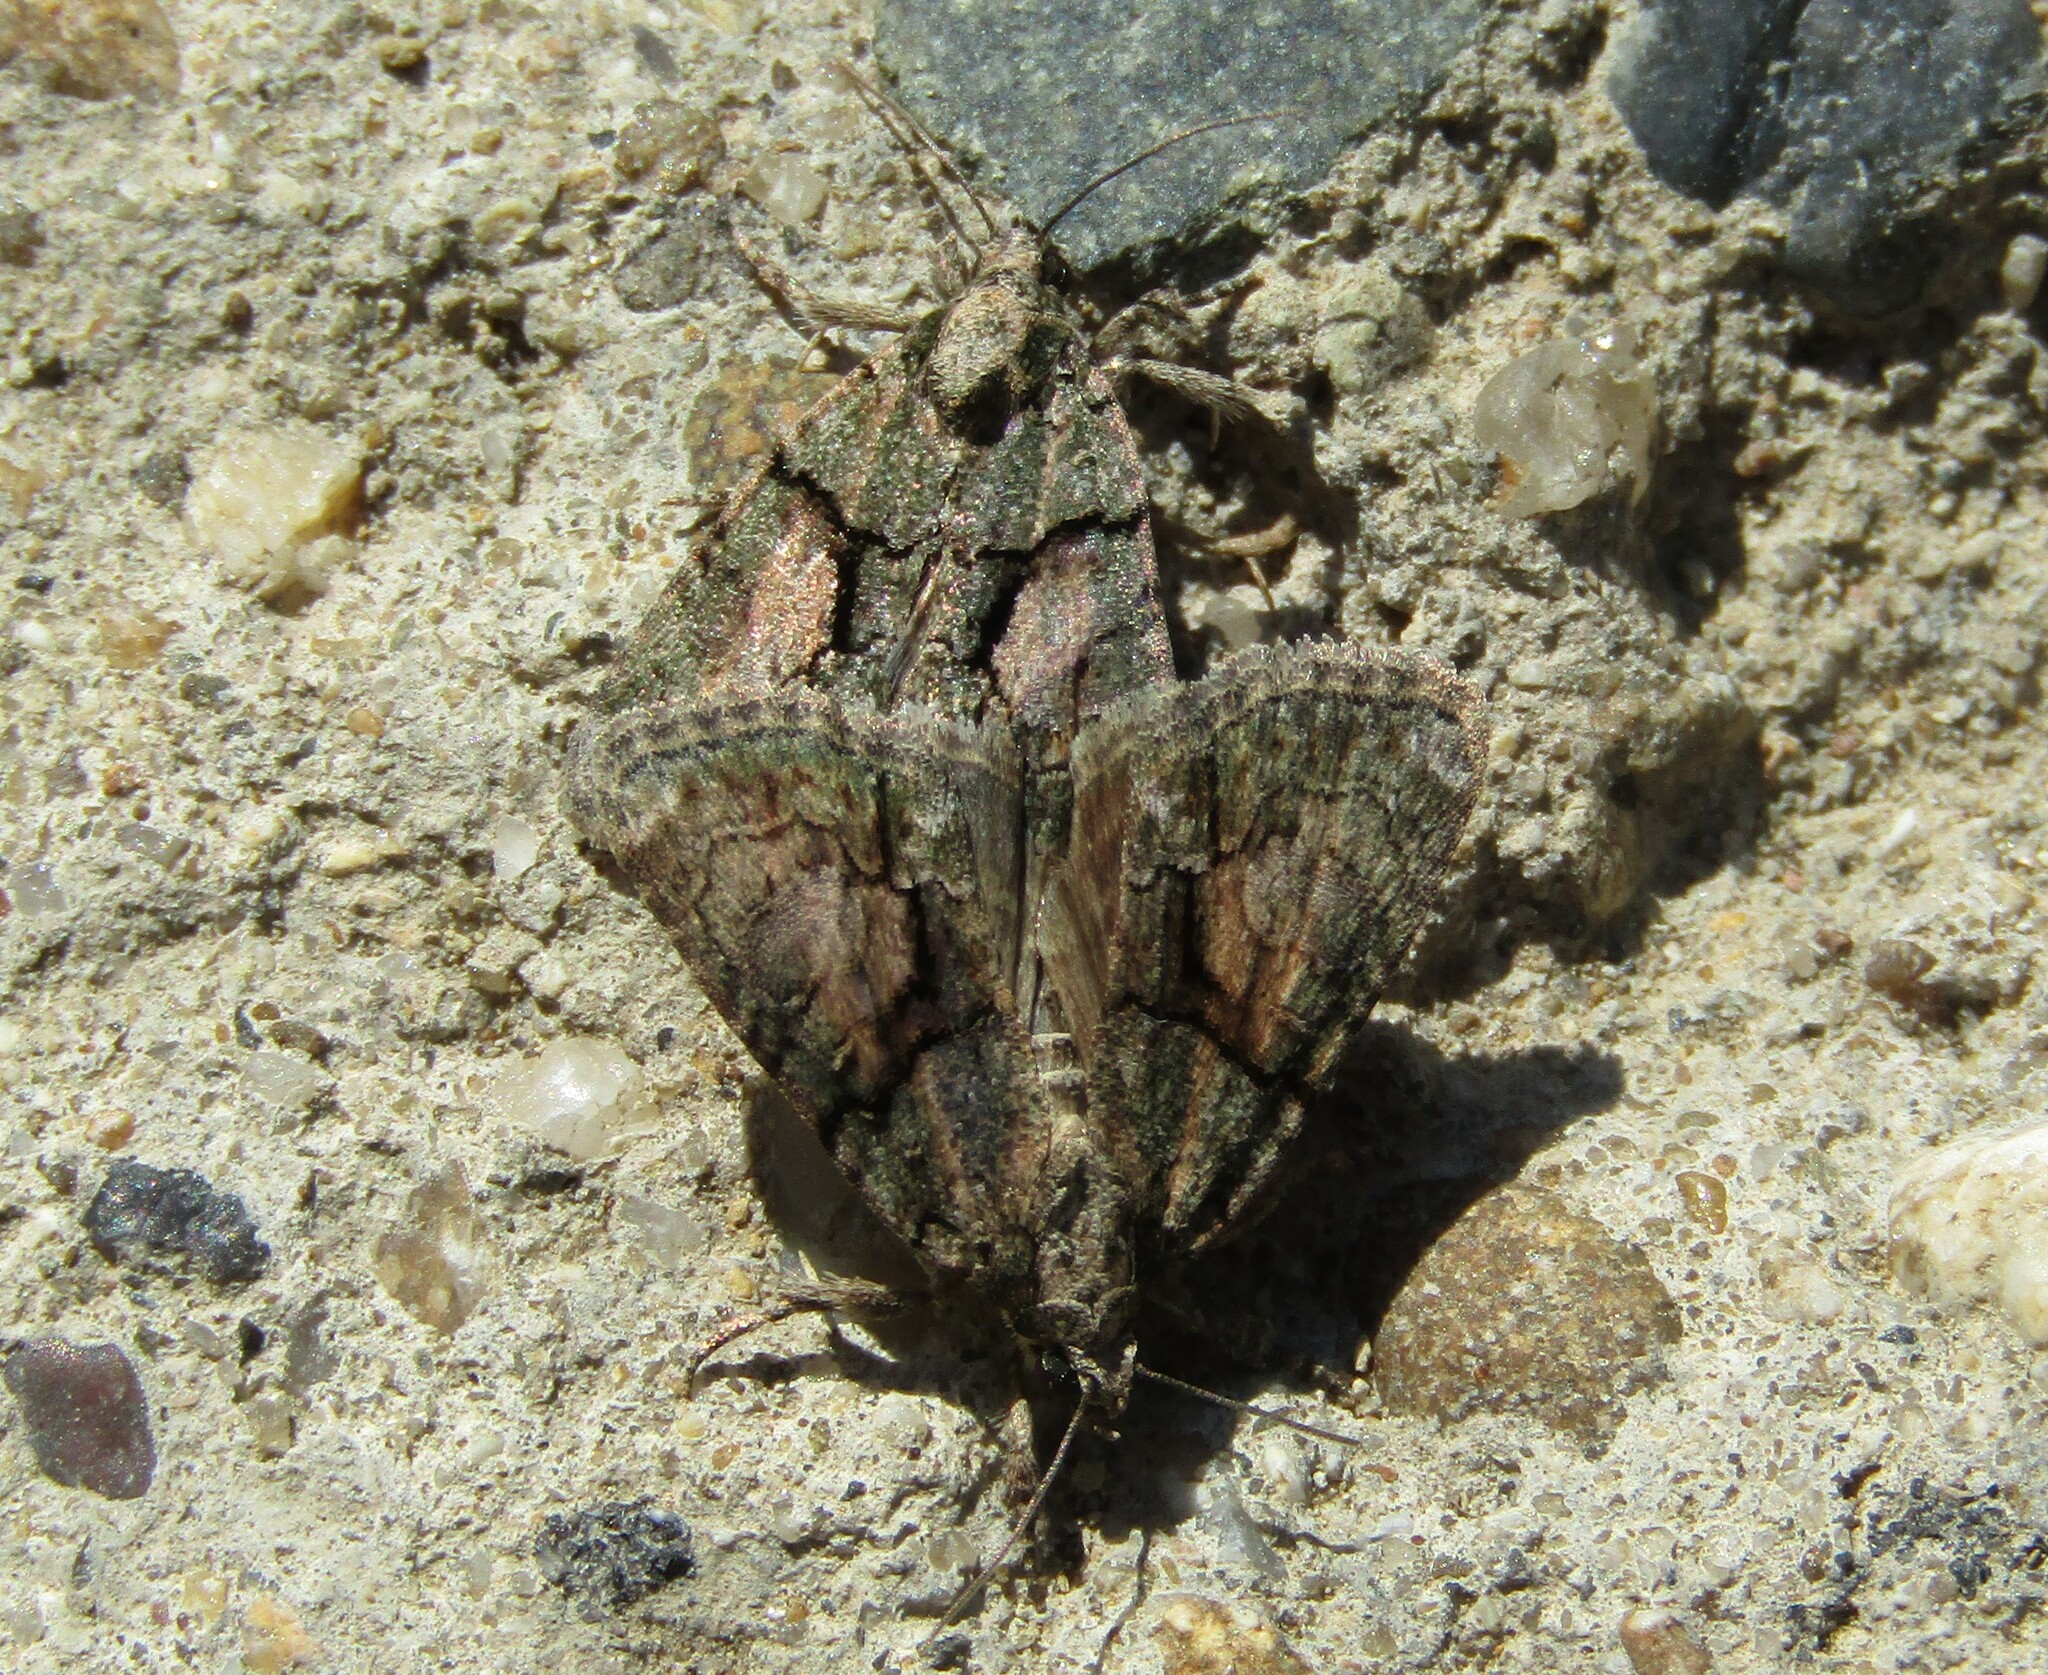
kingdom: Animalia
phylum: Arthropoda
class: Insecta
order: Lepidoptera
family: Noctuidae
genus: Cryphia
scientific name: Cryphia algae
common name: Tree-lichen beauty
